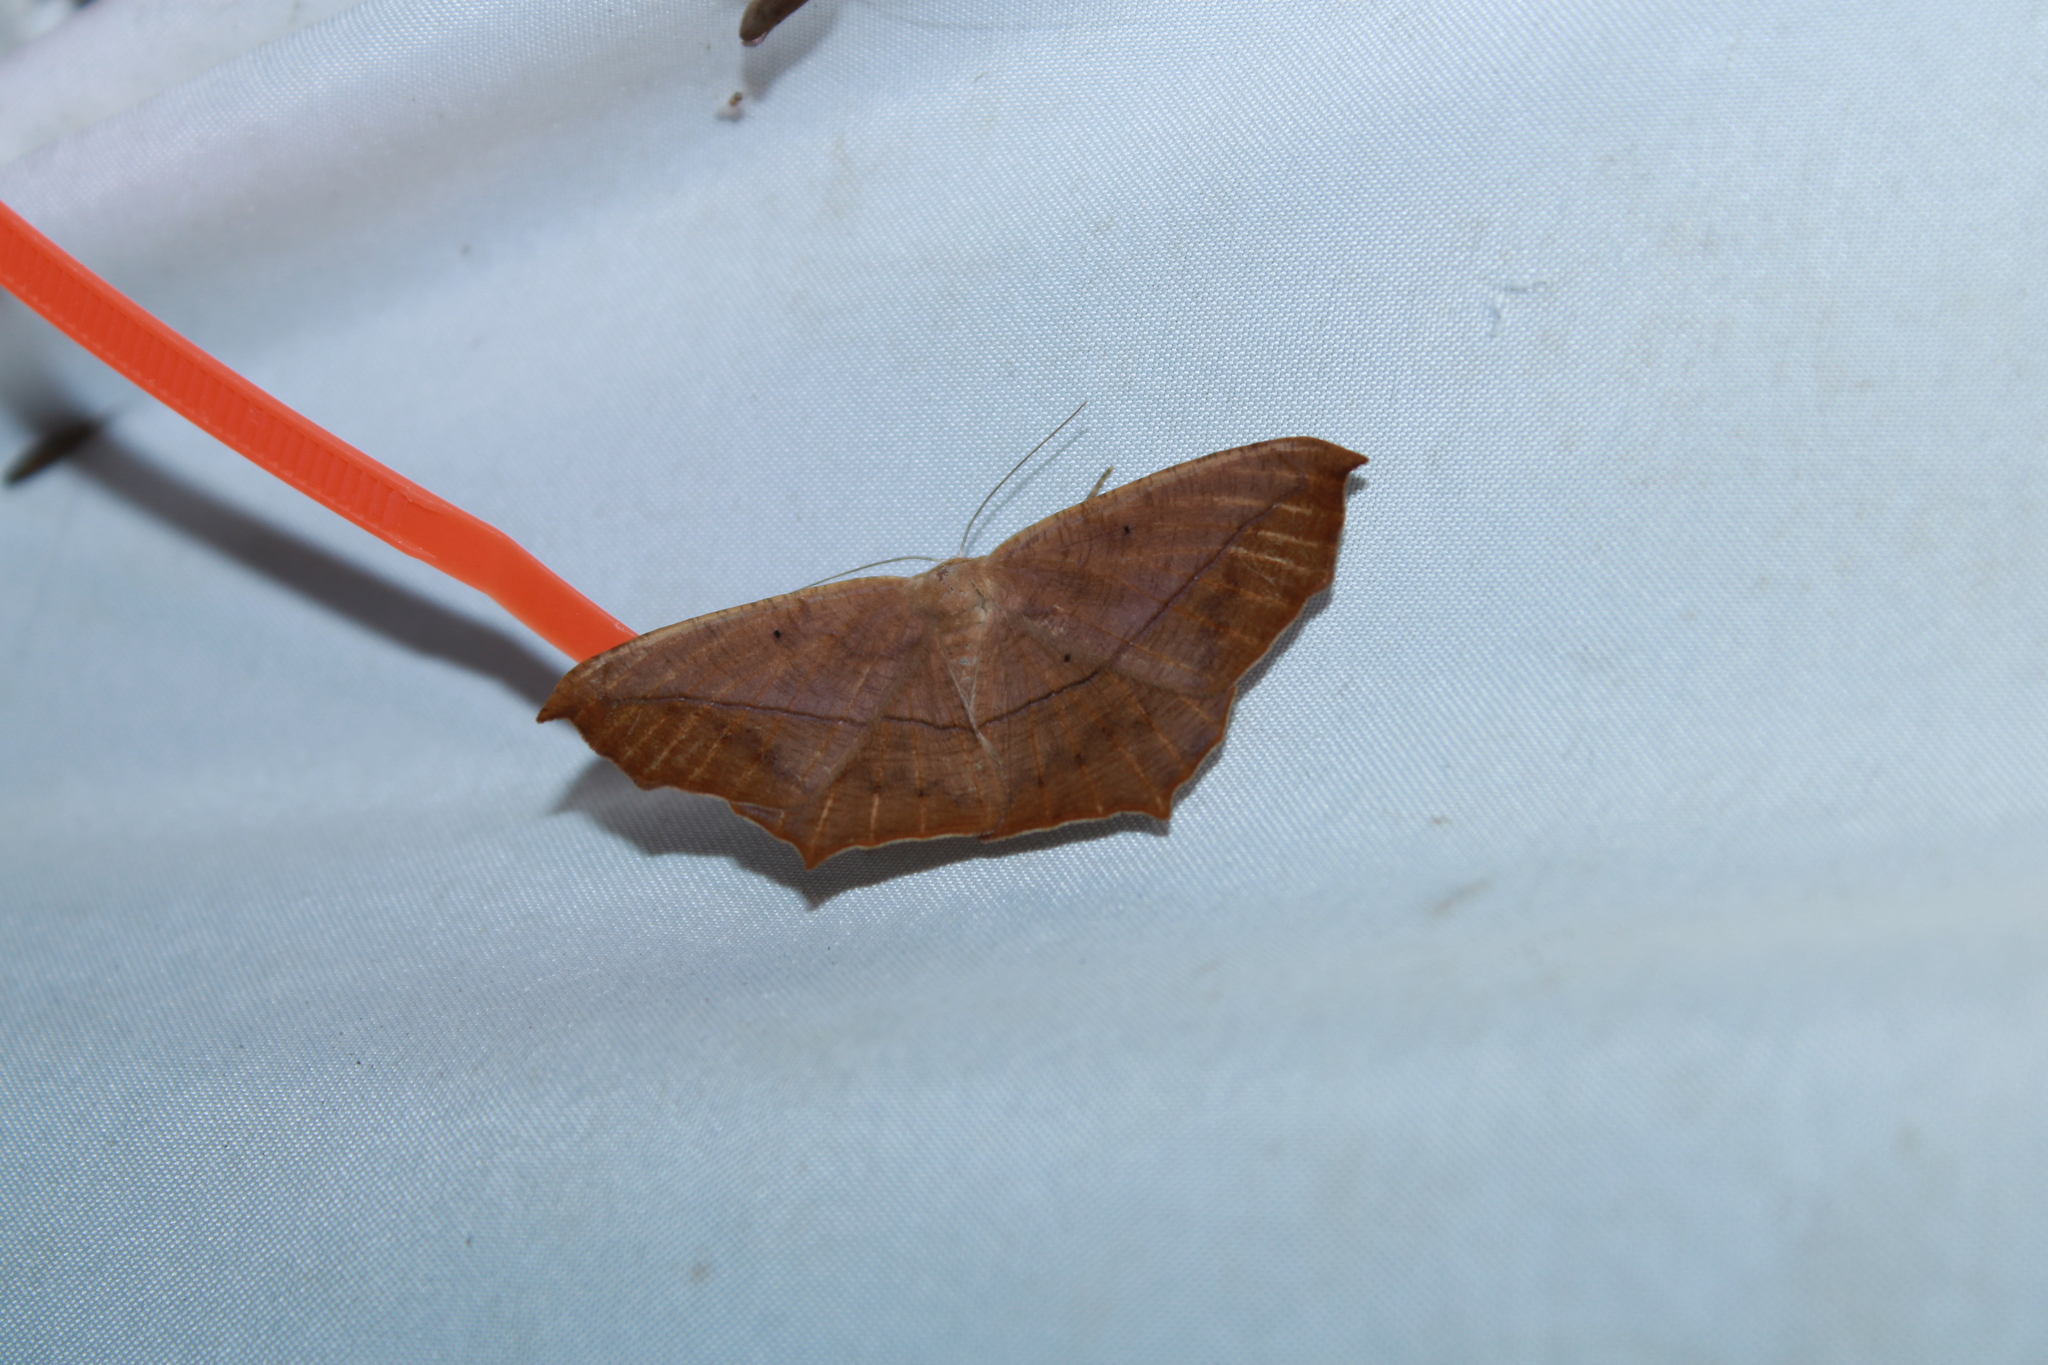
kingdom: Animalia
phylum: Arthropoda
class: Insecta
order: Lepidoptera
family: Geometridae
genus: Prochoerodes
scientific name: Prochoerodes lineola
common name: Large maple spanworm
